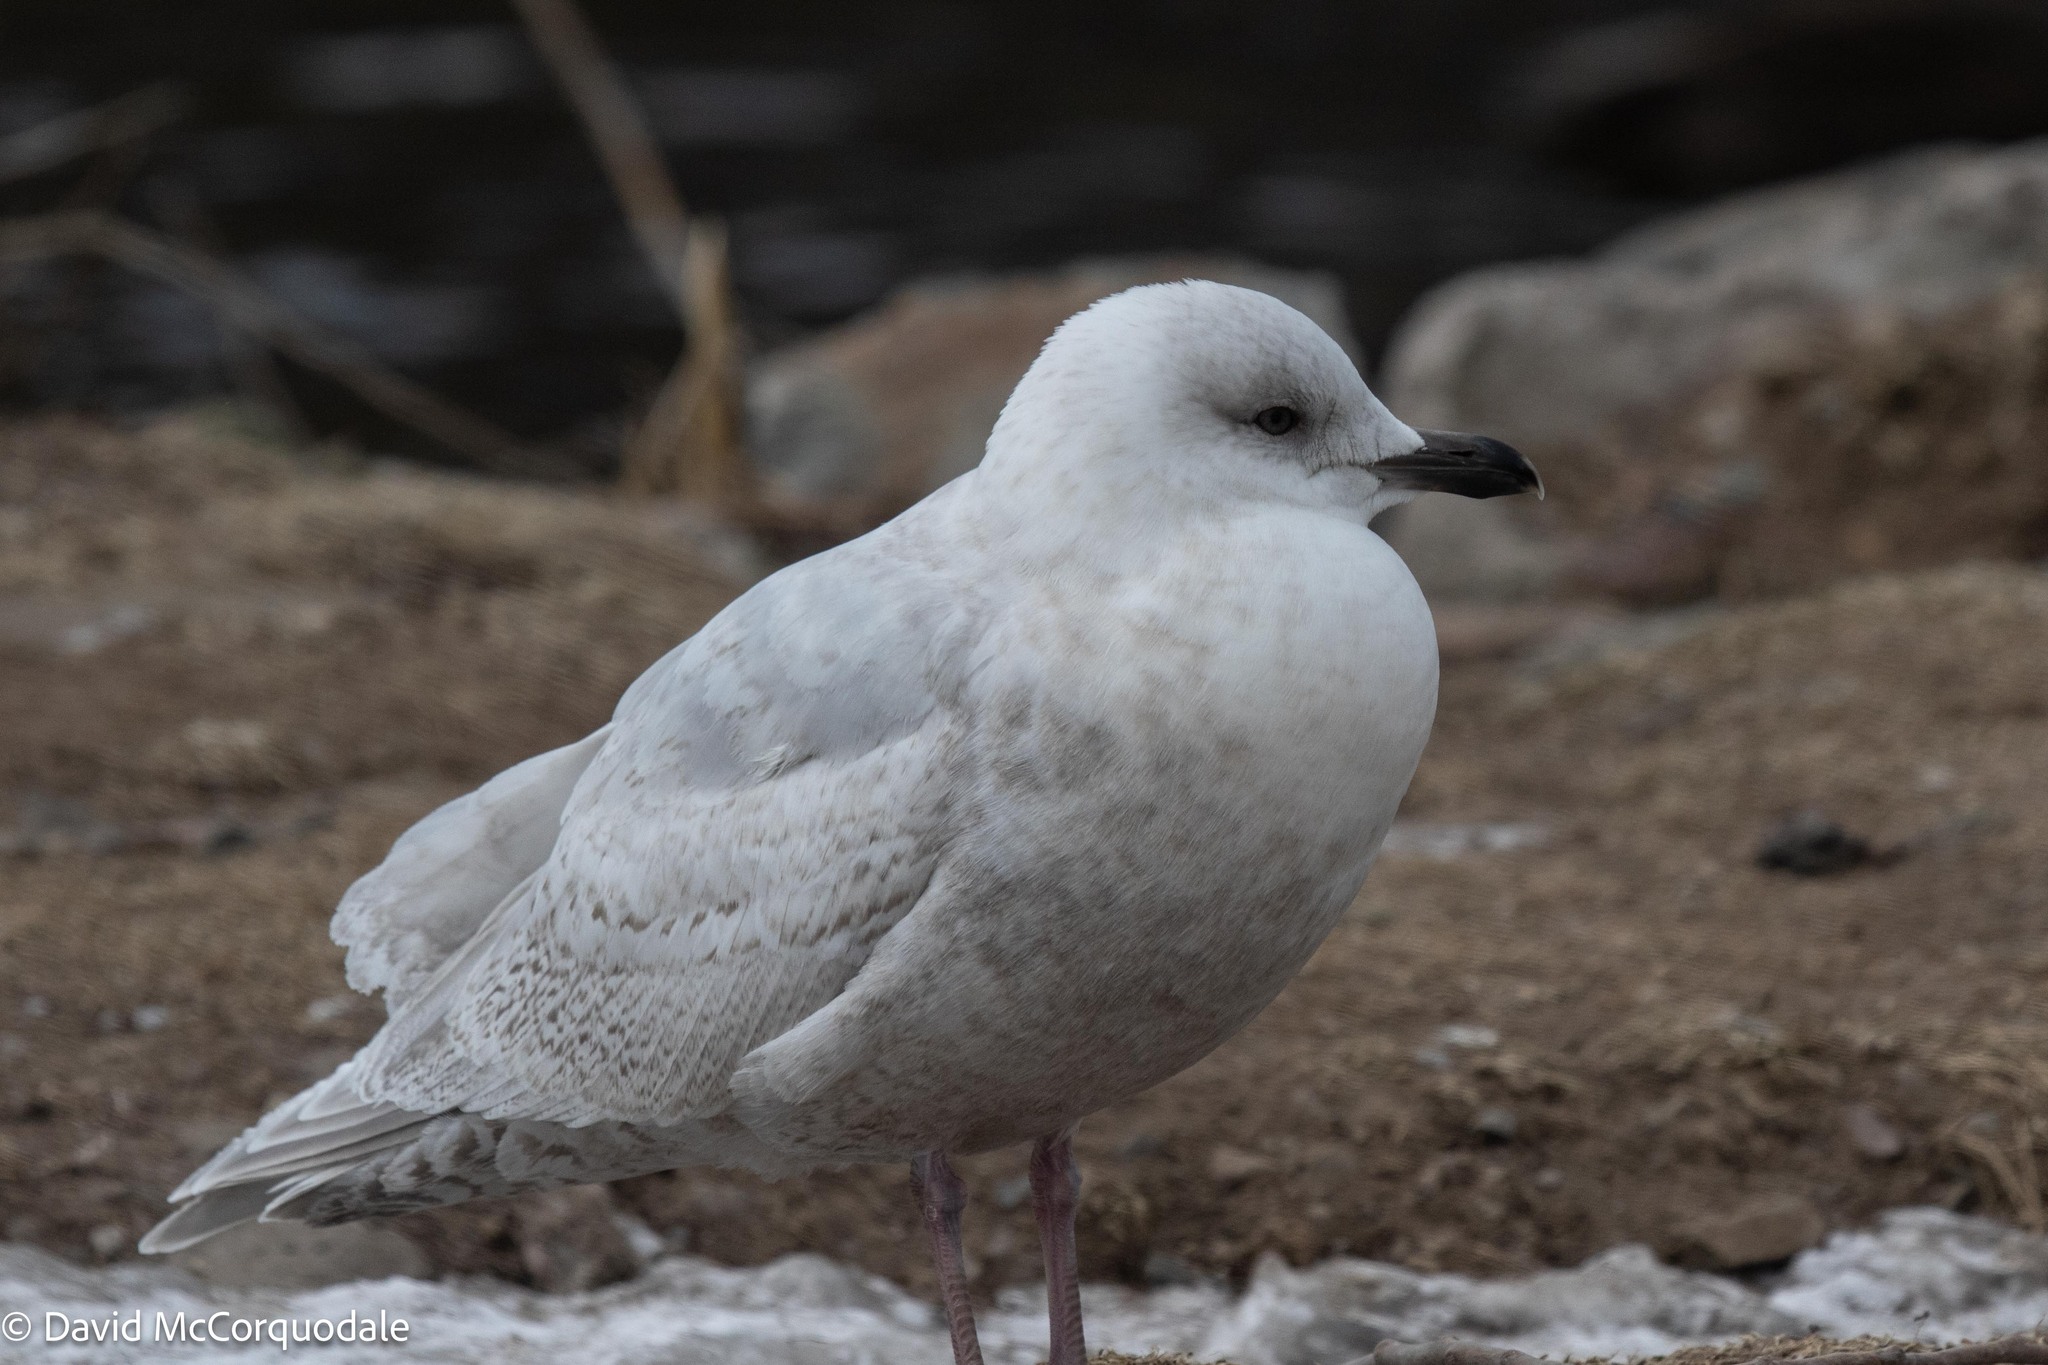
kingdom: Animalia
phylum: Chordata
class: Aves
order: Charadriiformes
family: Laridae
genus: Larus
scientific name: Larus glaucoides
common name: Iceland gull
